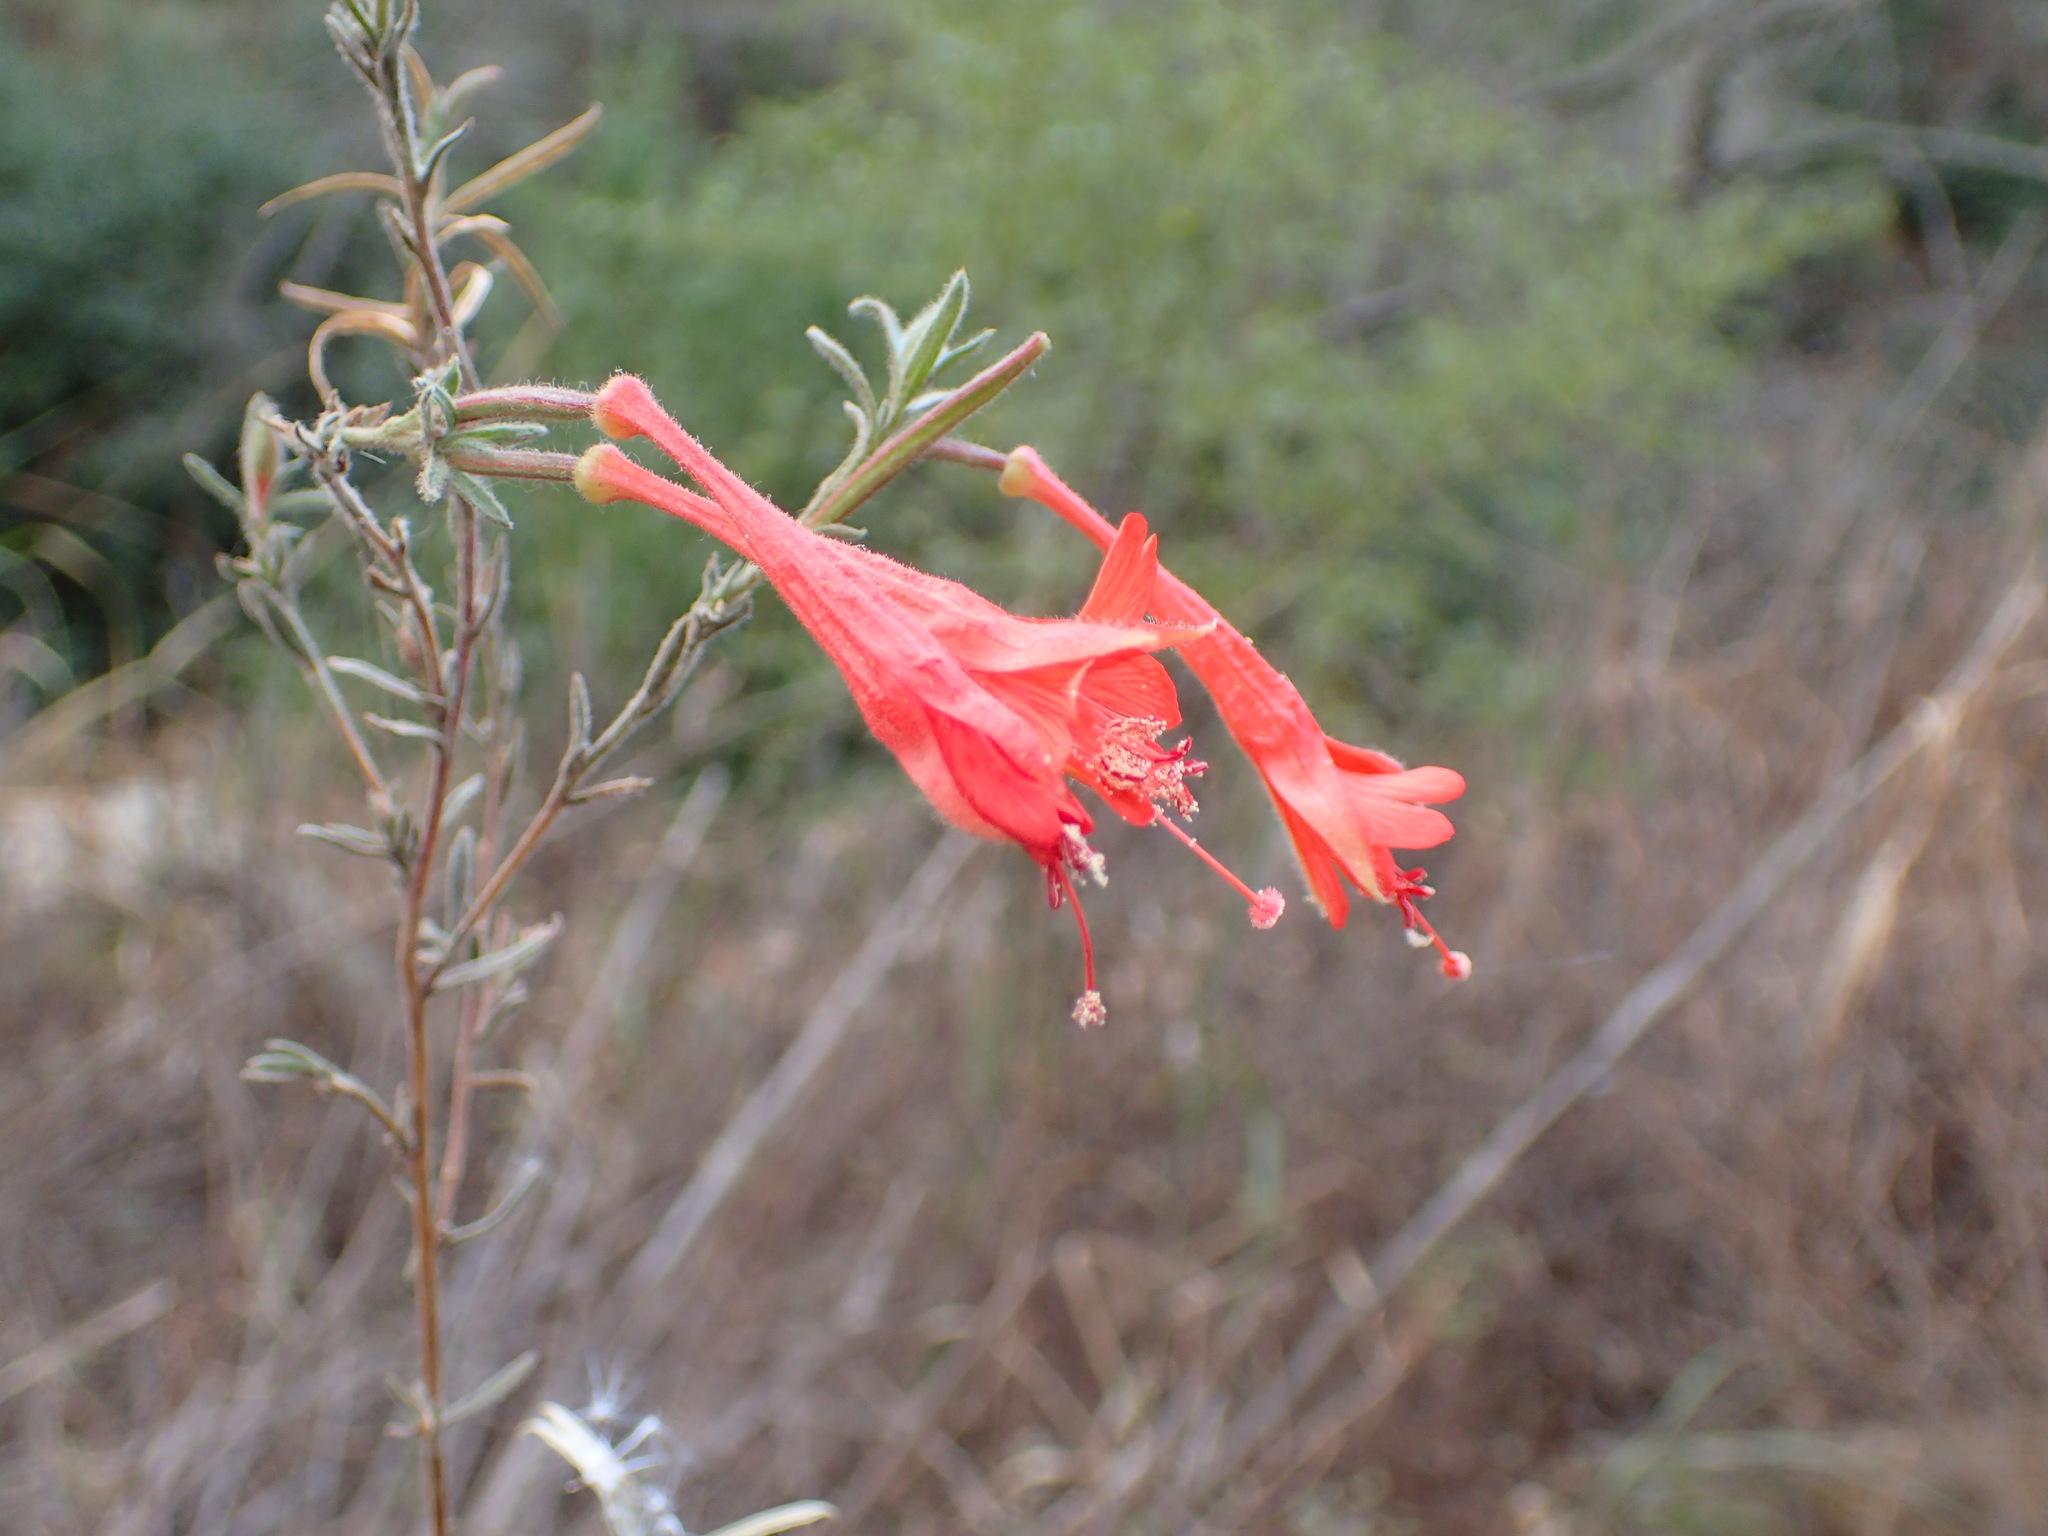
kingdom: Plantae
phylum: Tracheophyta
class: Magnoliopsida
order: Myrtales
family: Onagraceae
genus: Epilobium
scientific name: Epilobium canum
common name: California-fuchsia
